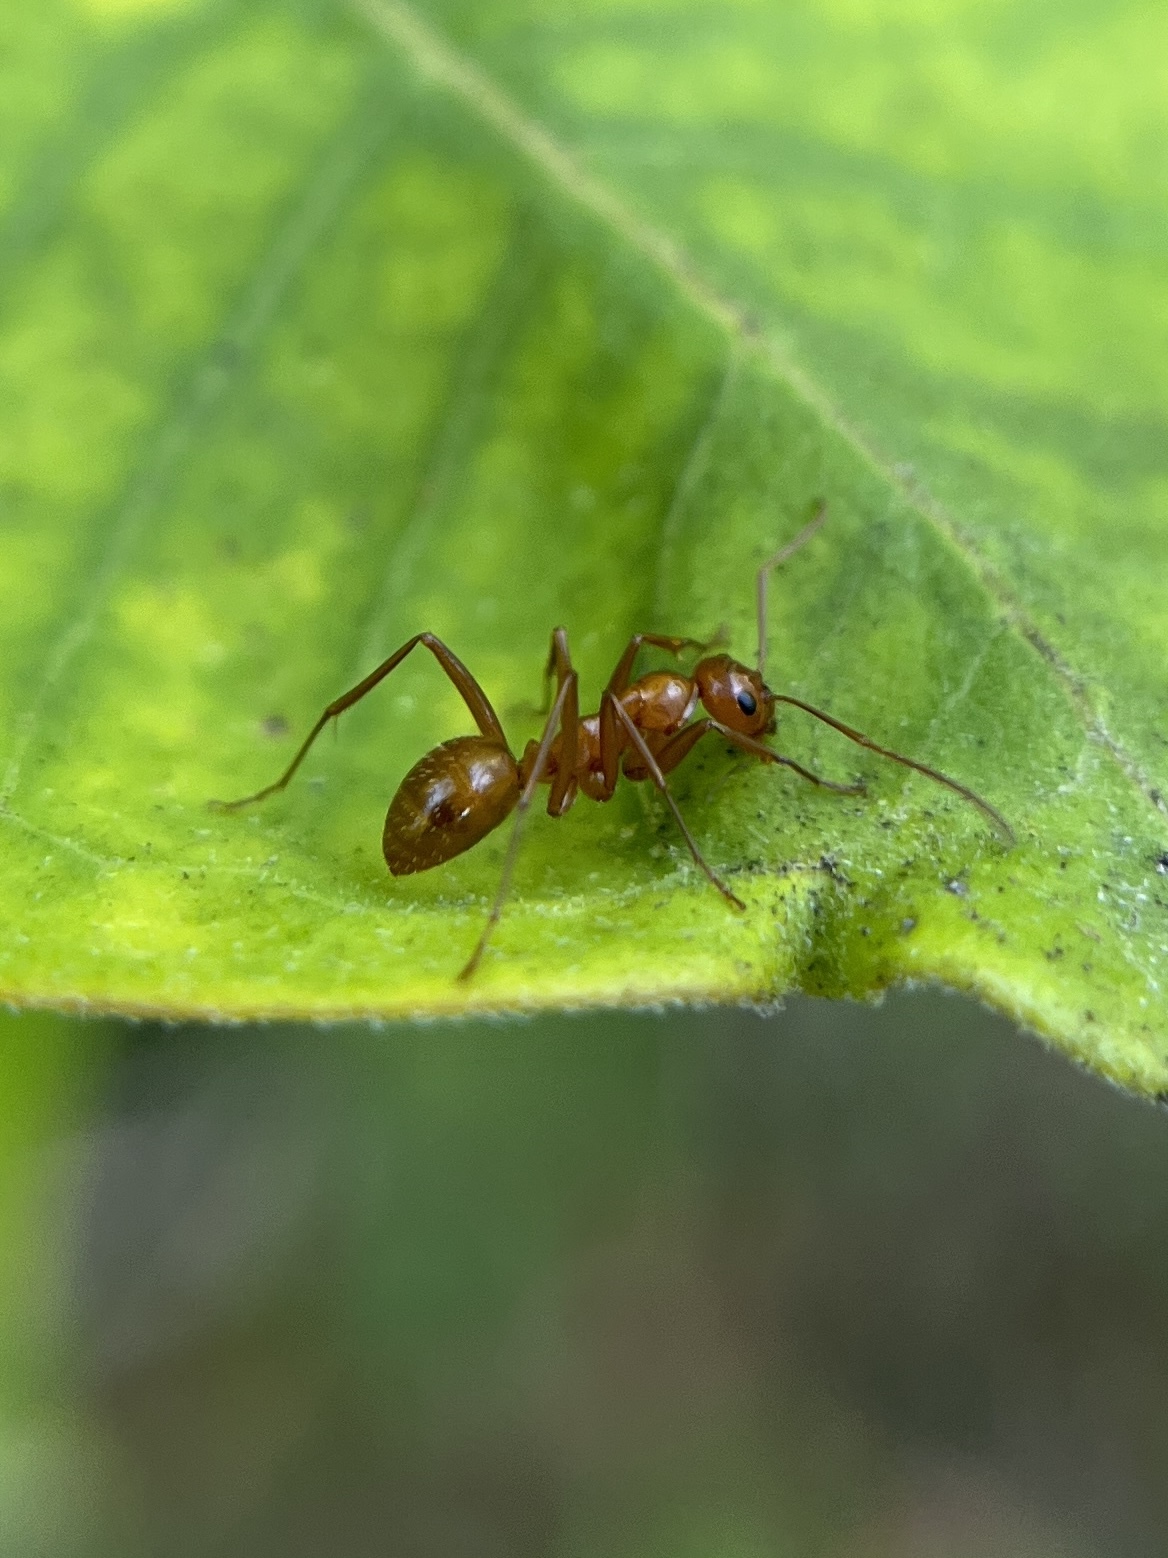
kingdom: Animalia
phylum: Arthropoda
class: Insecta
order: Hymenoptera
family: Formicidae
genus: Formica
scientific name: Formica pallidefulva
